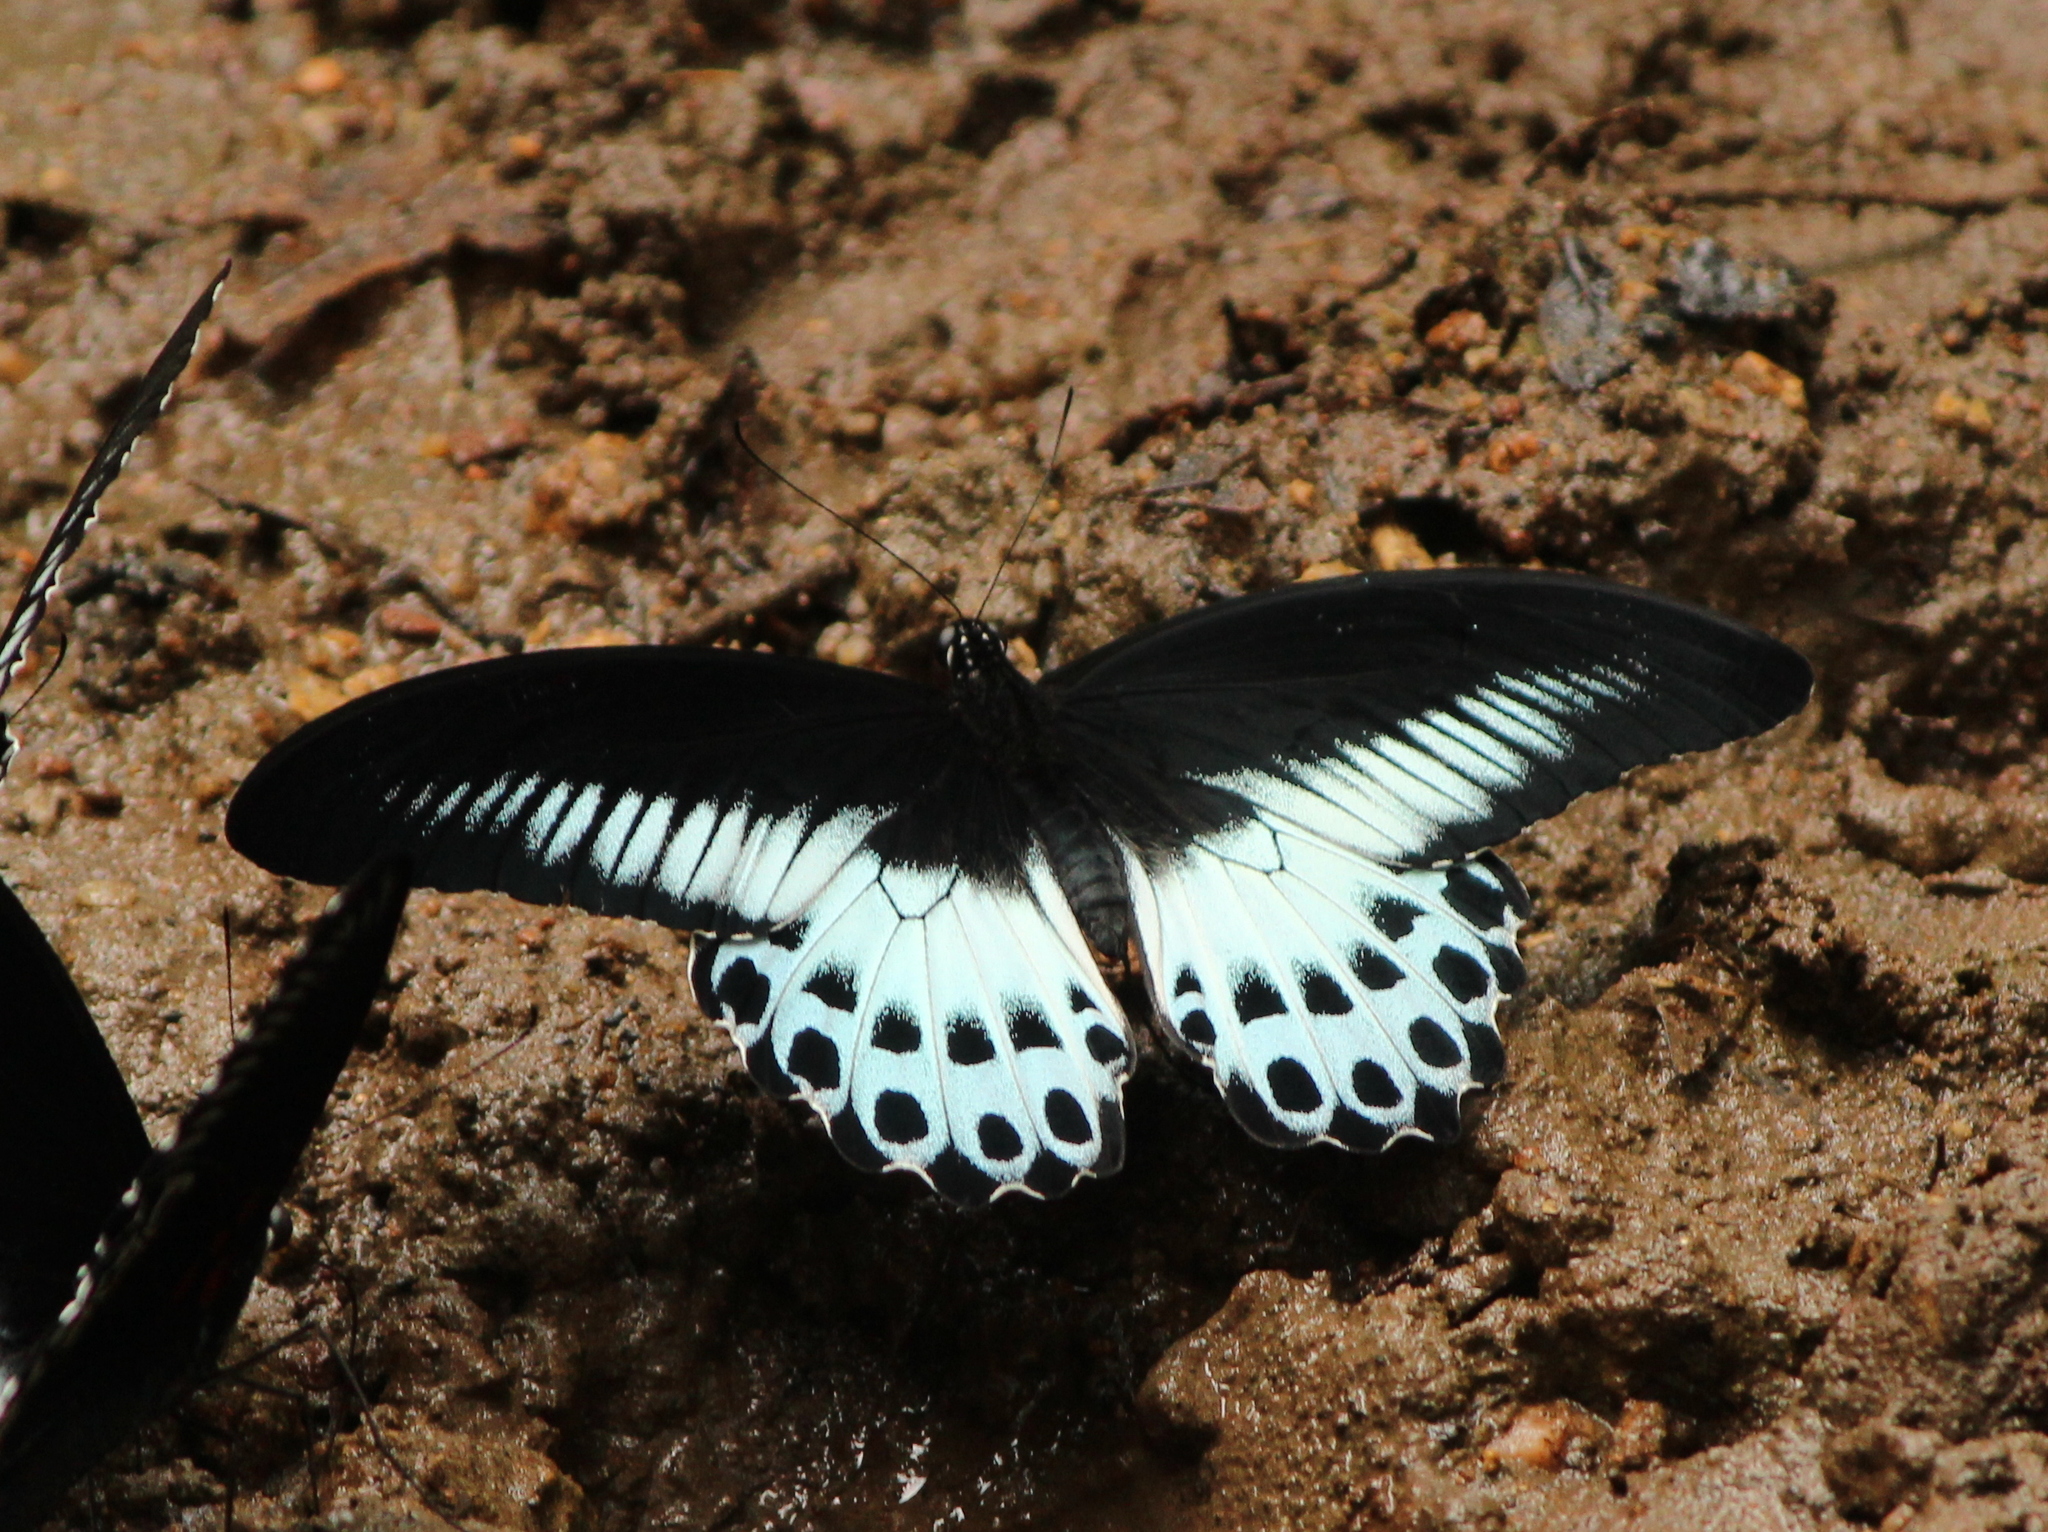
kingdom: Animalia
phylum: Arthropoda
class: Insecta
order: Lepidoptera
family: Papilionidae
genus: Papilio
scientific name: Papilio memnon
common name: Great mormon
